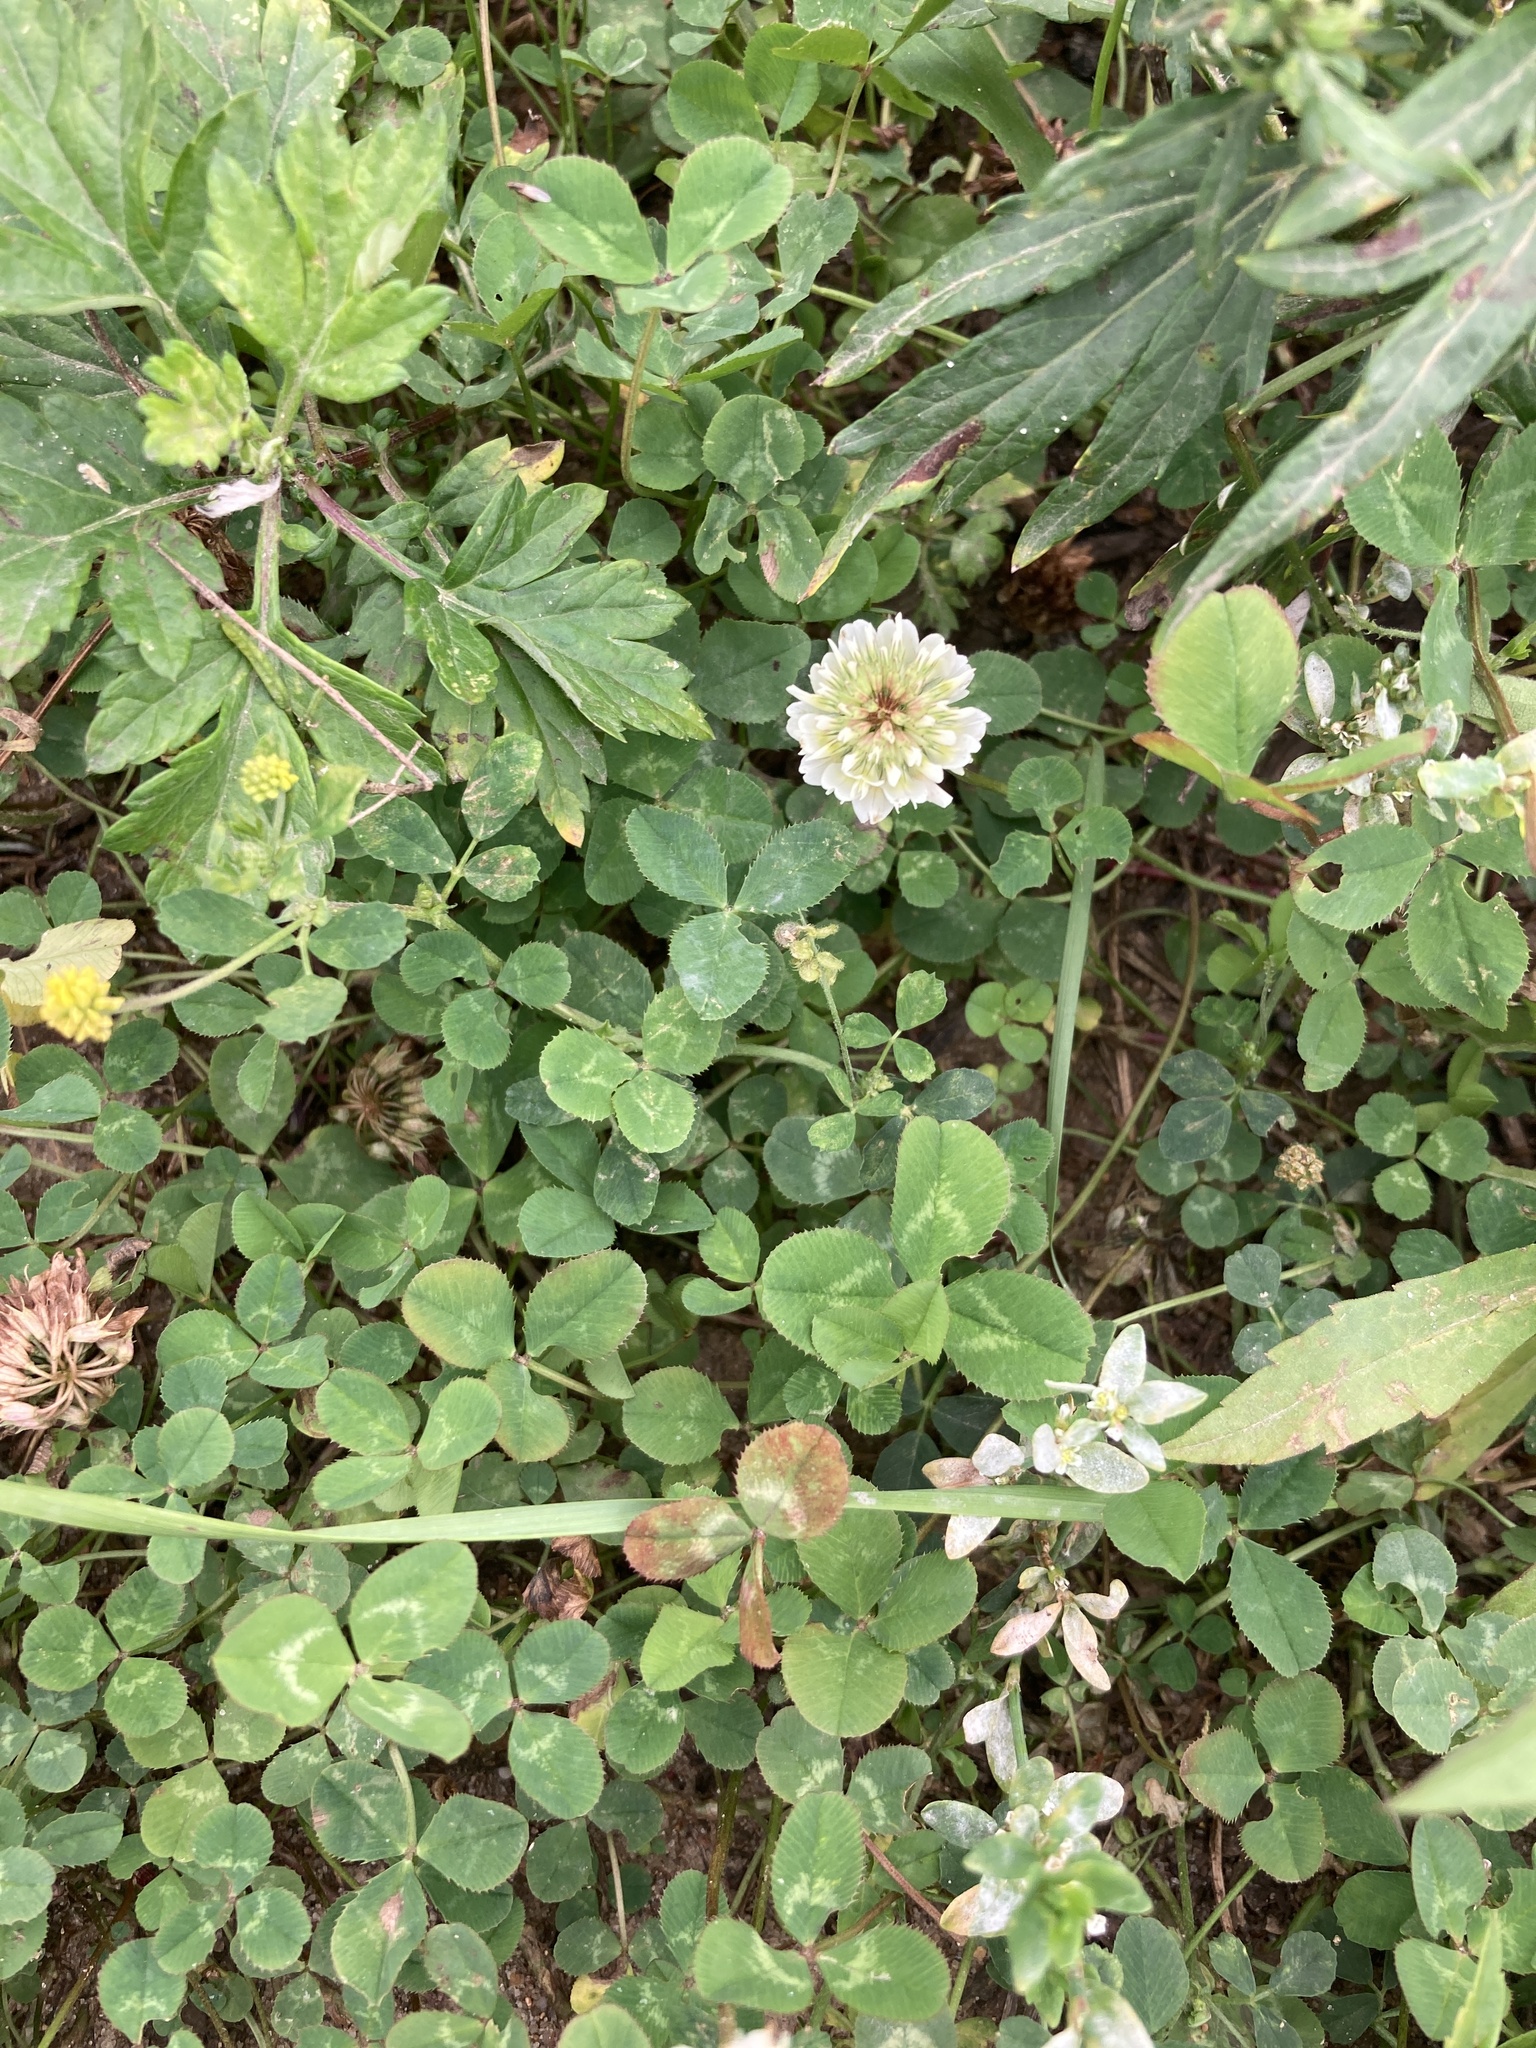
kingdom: Plantae
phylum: Tracheophyta
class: Magnoliopsida
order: Fabales
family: Fabaceae
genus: Trifolium
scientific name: Trifolium repens
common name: White clover
